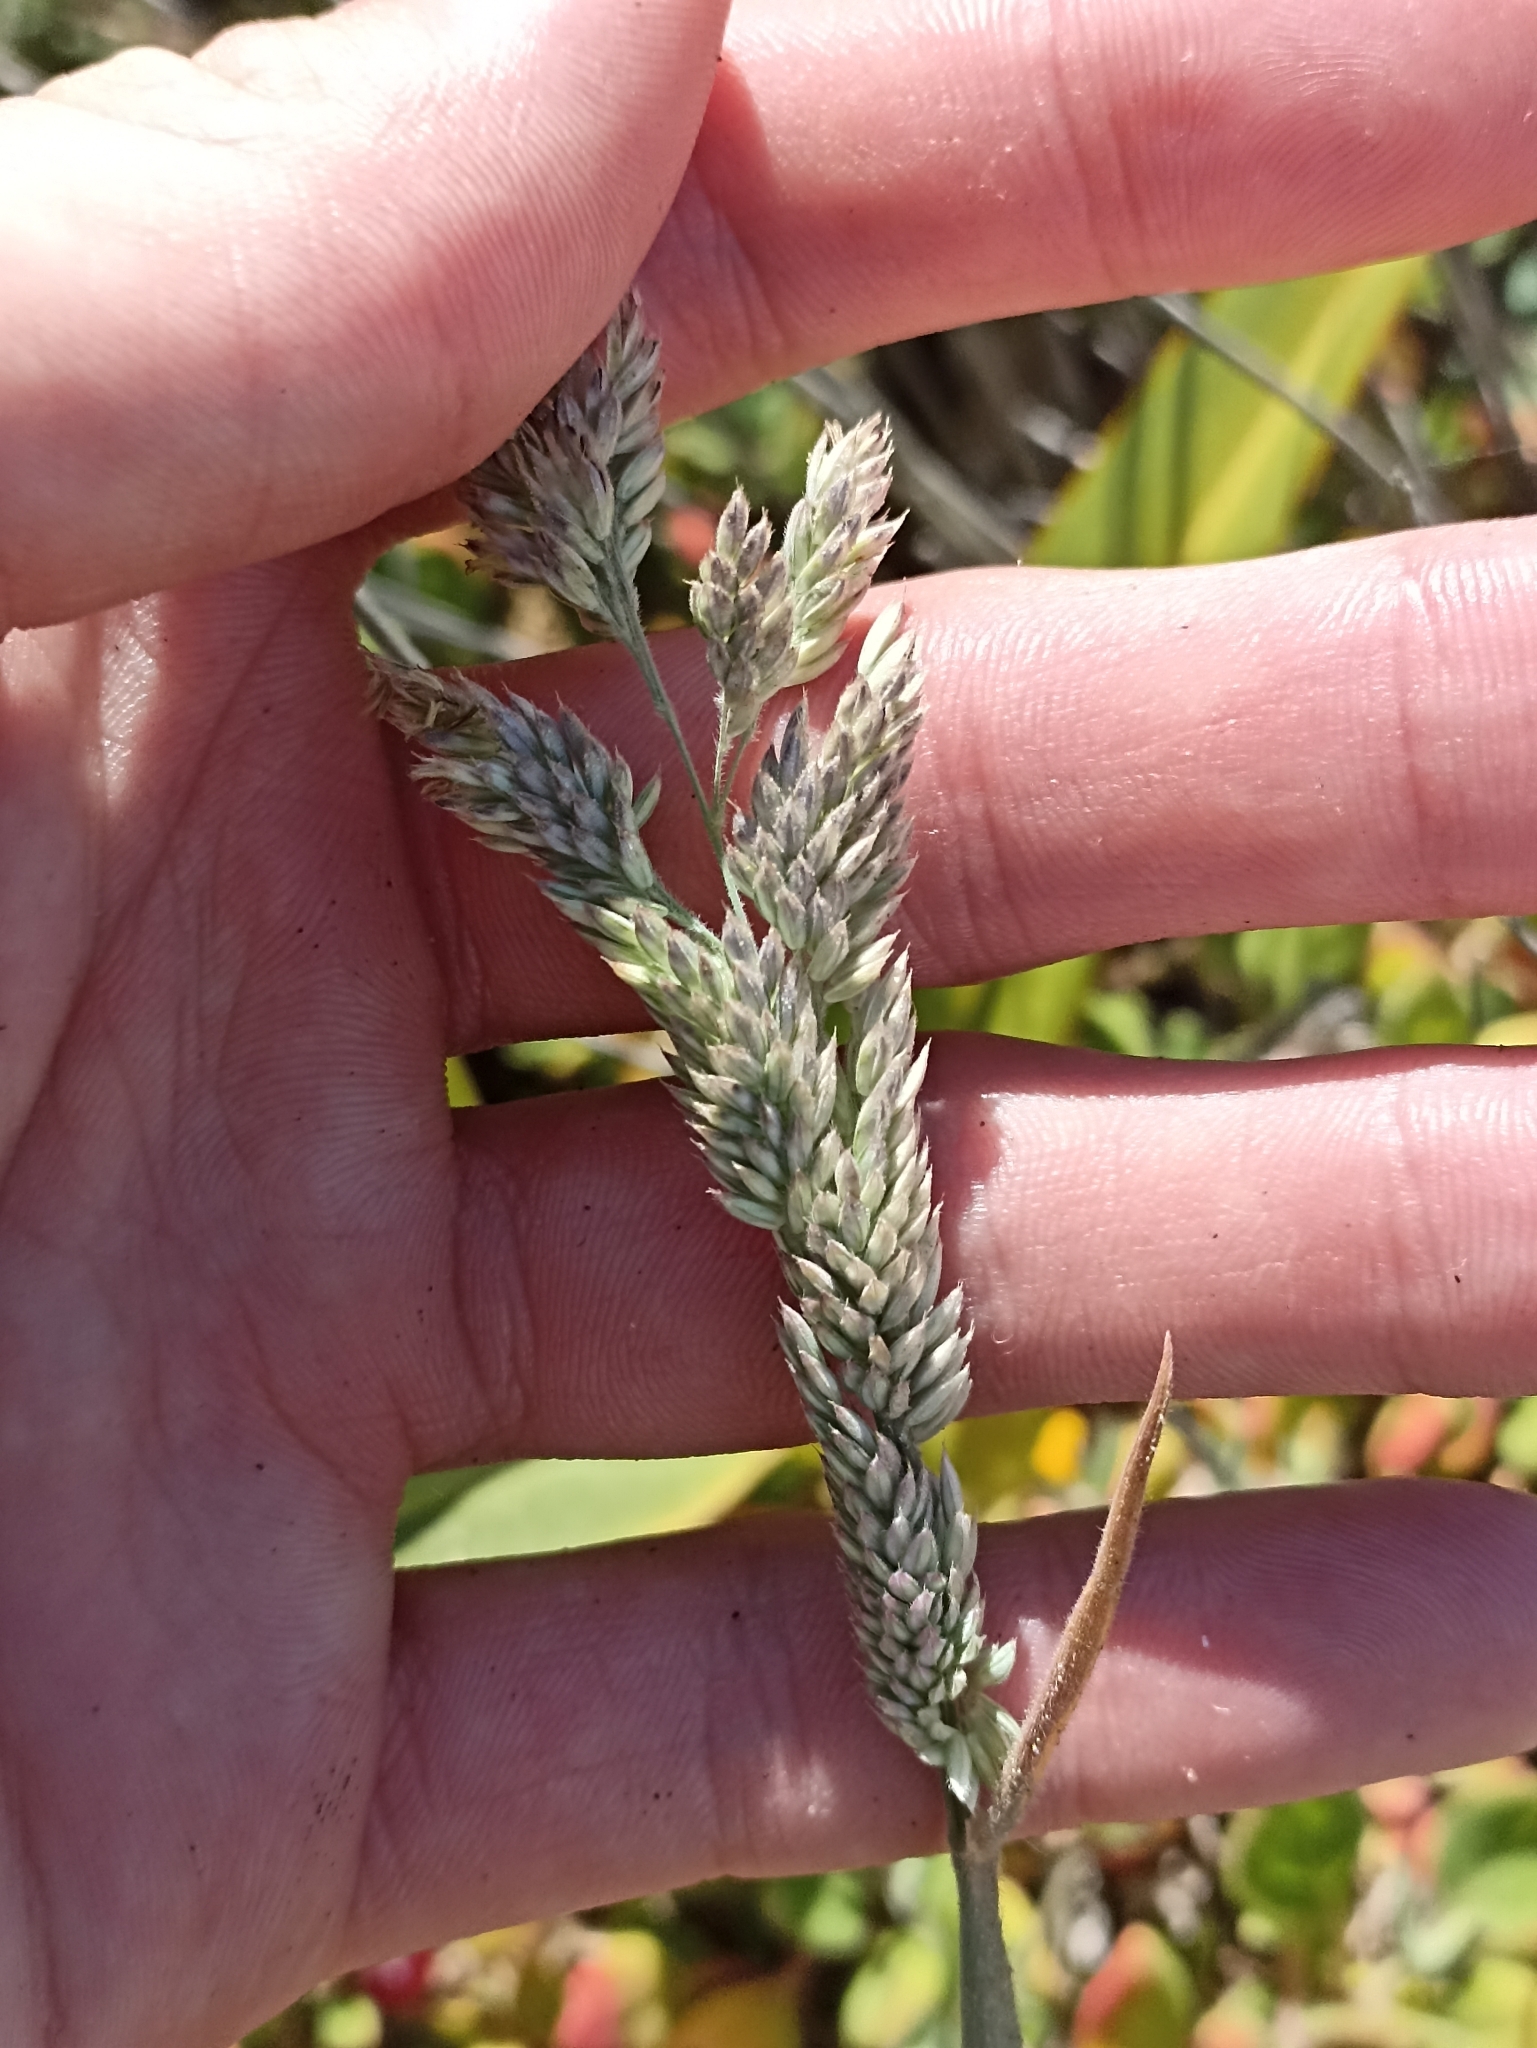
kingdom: Plantae
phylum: Tracheophyta
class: Liliopsida
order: Poales
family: Poaceae
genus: Holcus
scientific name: Holcus lanatus
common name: Yorkshire-fog
